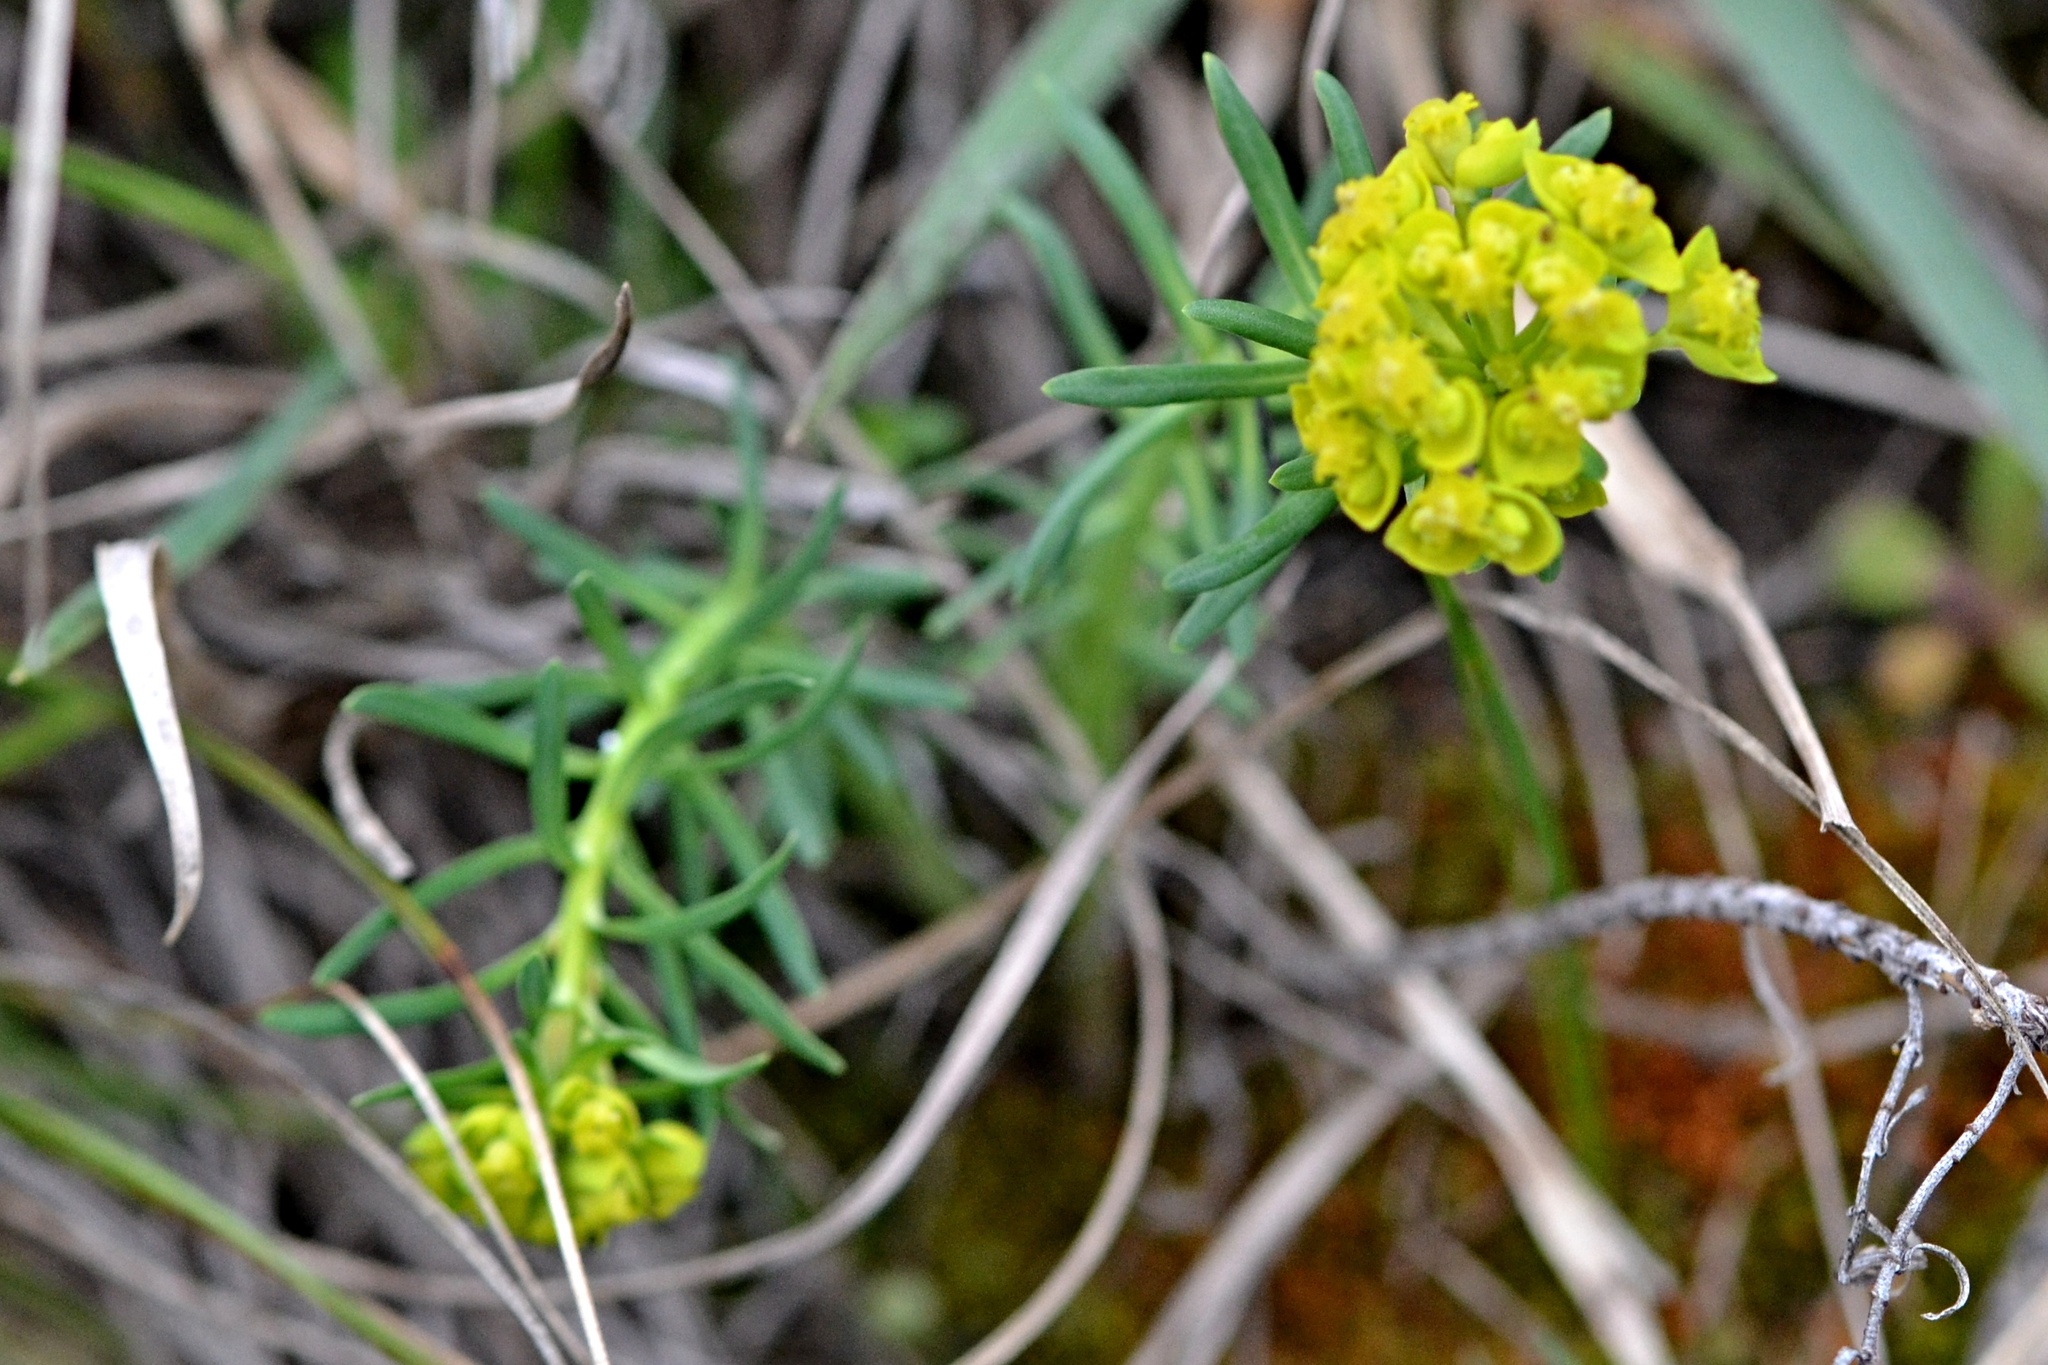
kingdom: Plantae
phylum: Tracheophyta
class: Magnoliopsida
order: Malpighiales
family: Euphorbiaceae
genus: Euphorbia
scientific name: Euphorbia cyparissias
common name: Cypress spurge
